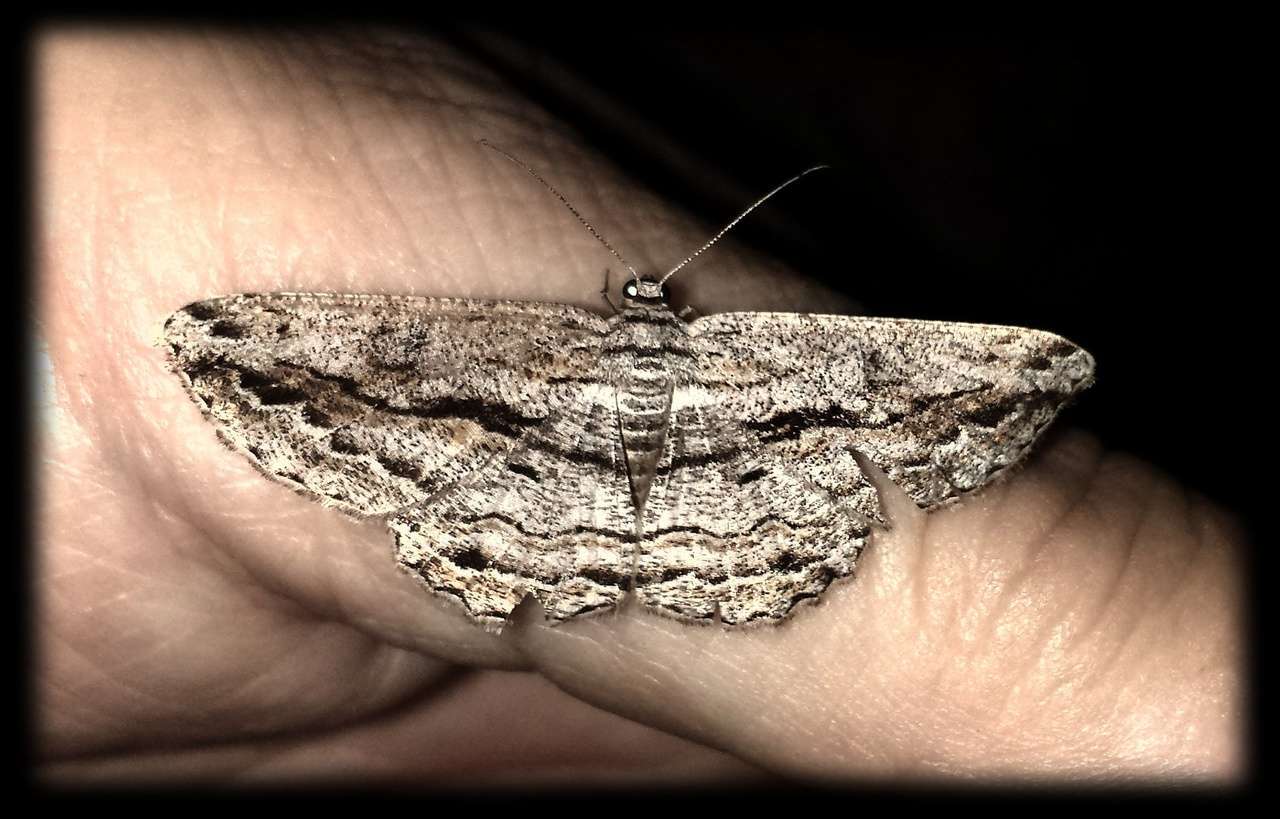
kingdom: Animalia
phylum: Arthropoda
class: Insecta
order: Lepidoptera
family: Geometridae
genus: Scioglyptis
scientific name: Scioglyptis chionomera
